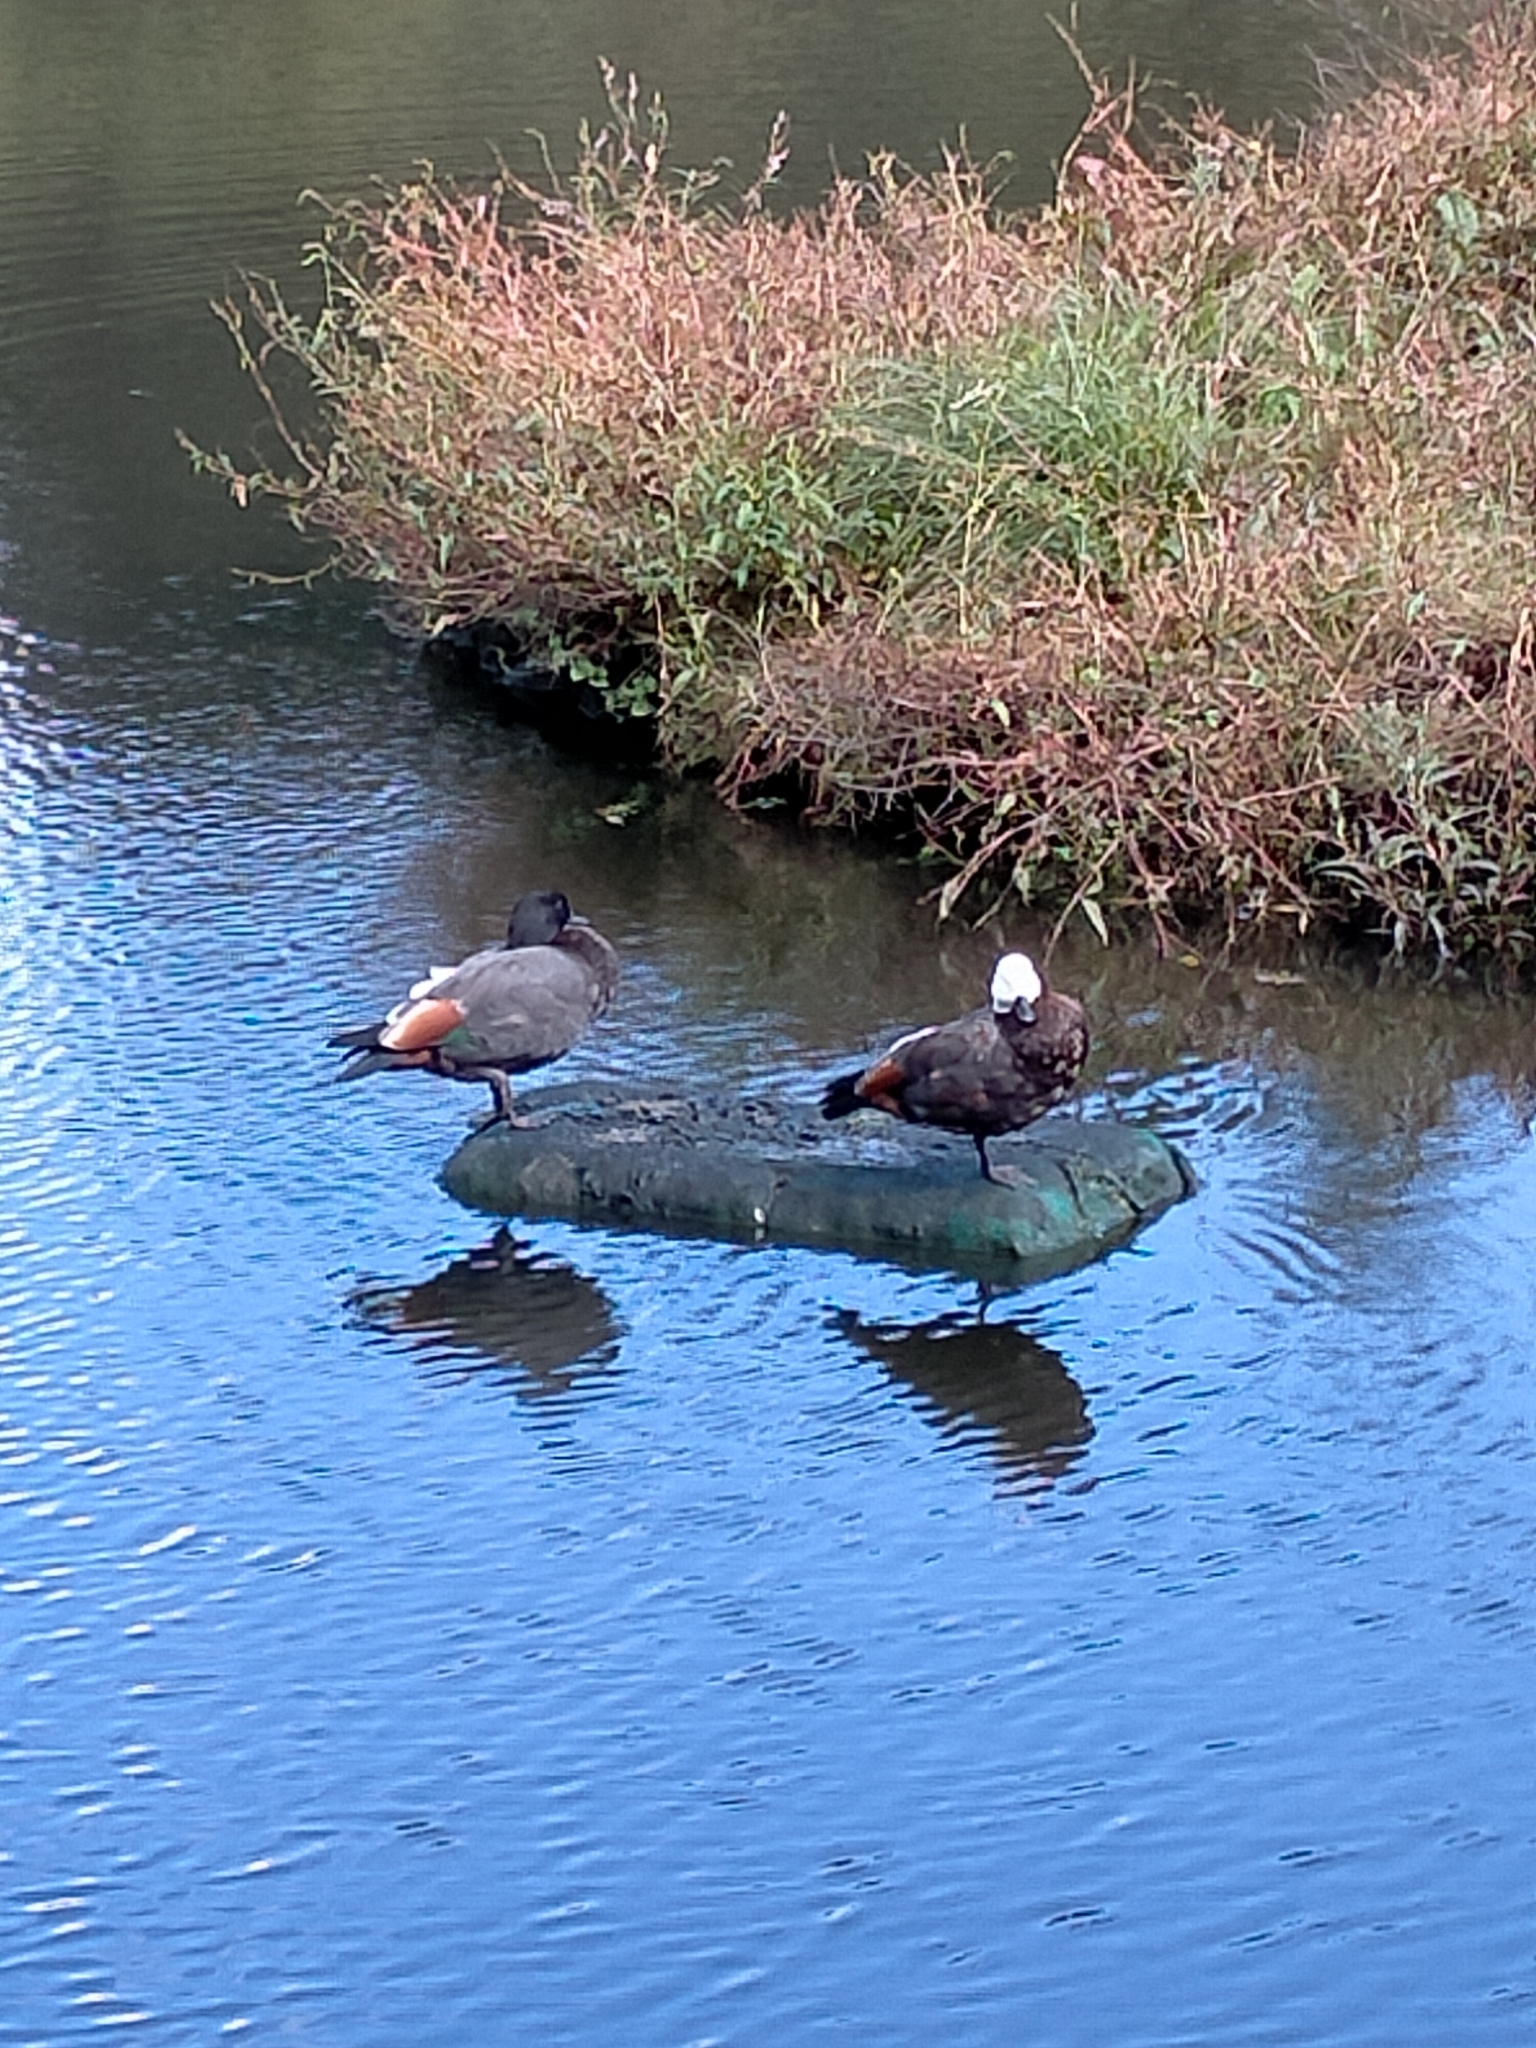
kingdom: Animalia
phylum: Chordata
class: Aves
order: Anseriformes
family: Anatidae
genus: Tadorna
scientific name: Tadorna variegata
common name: Paradise shelduck
